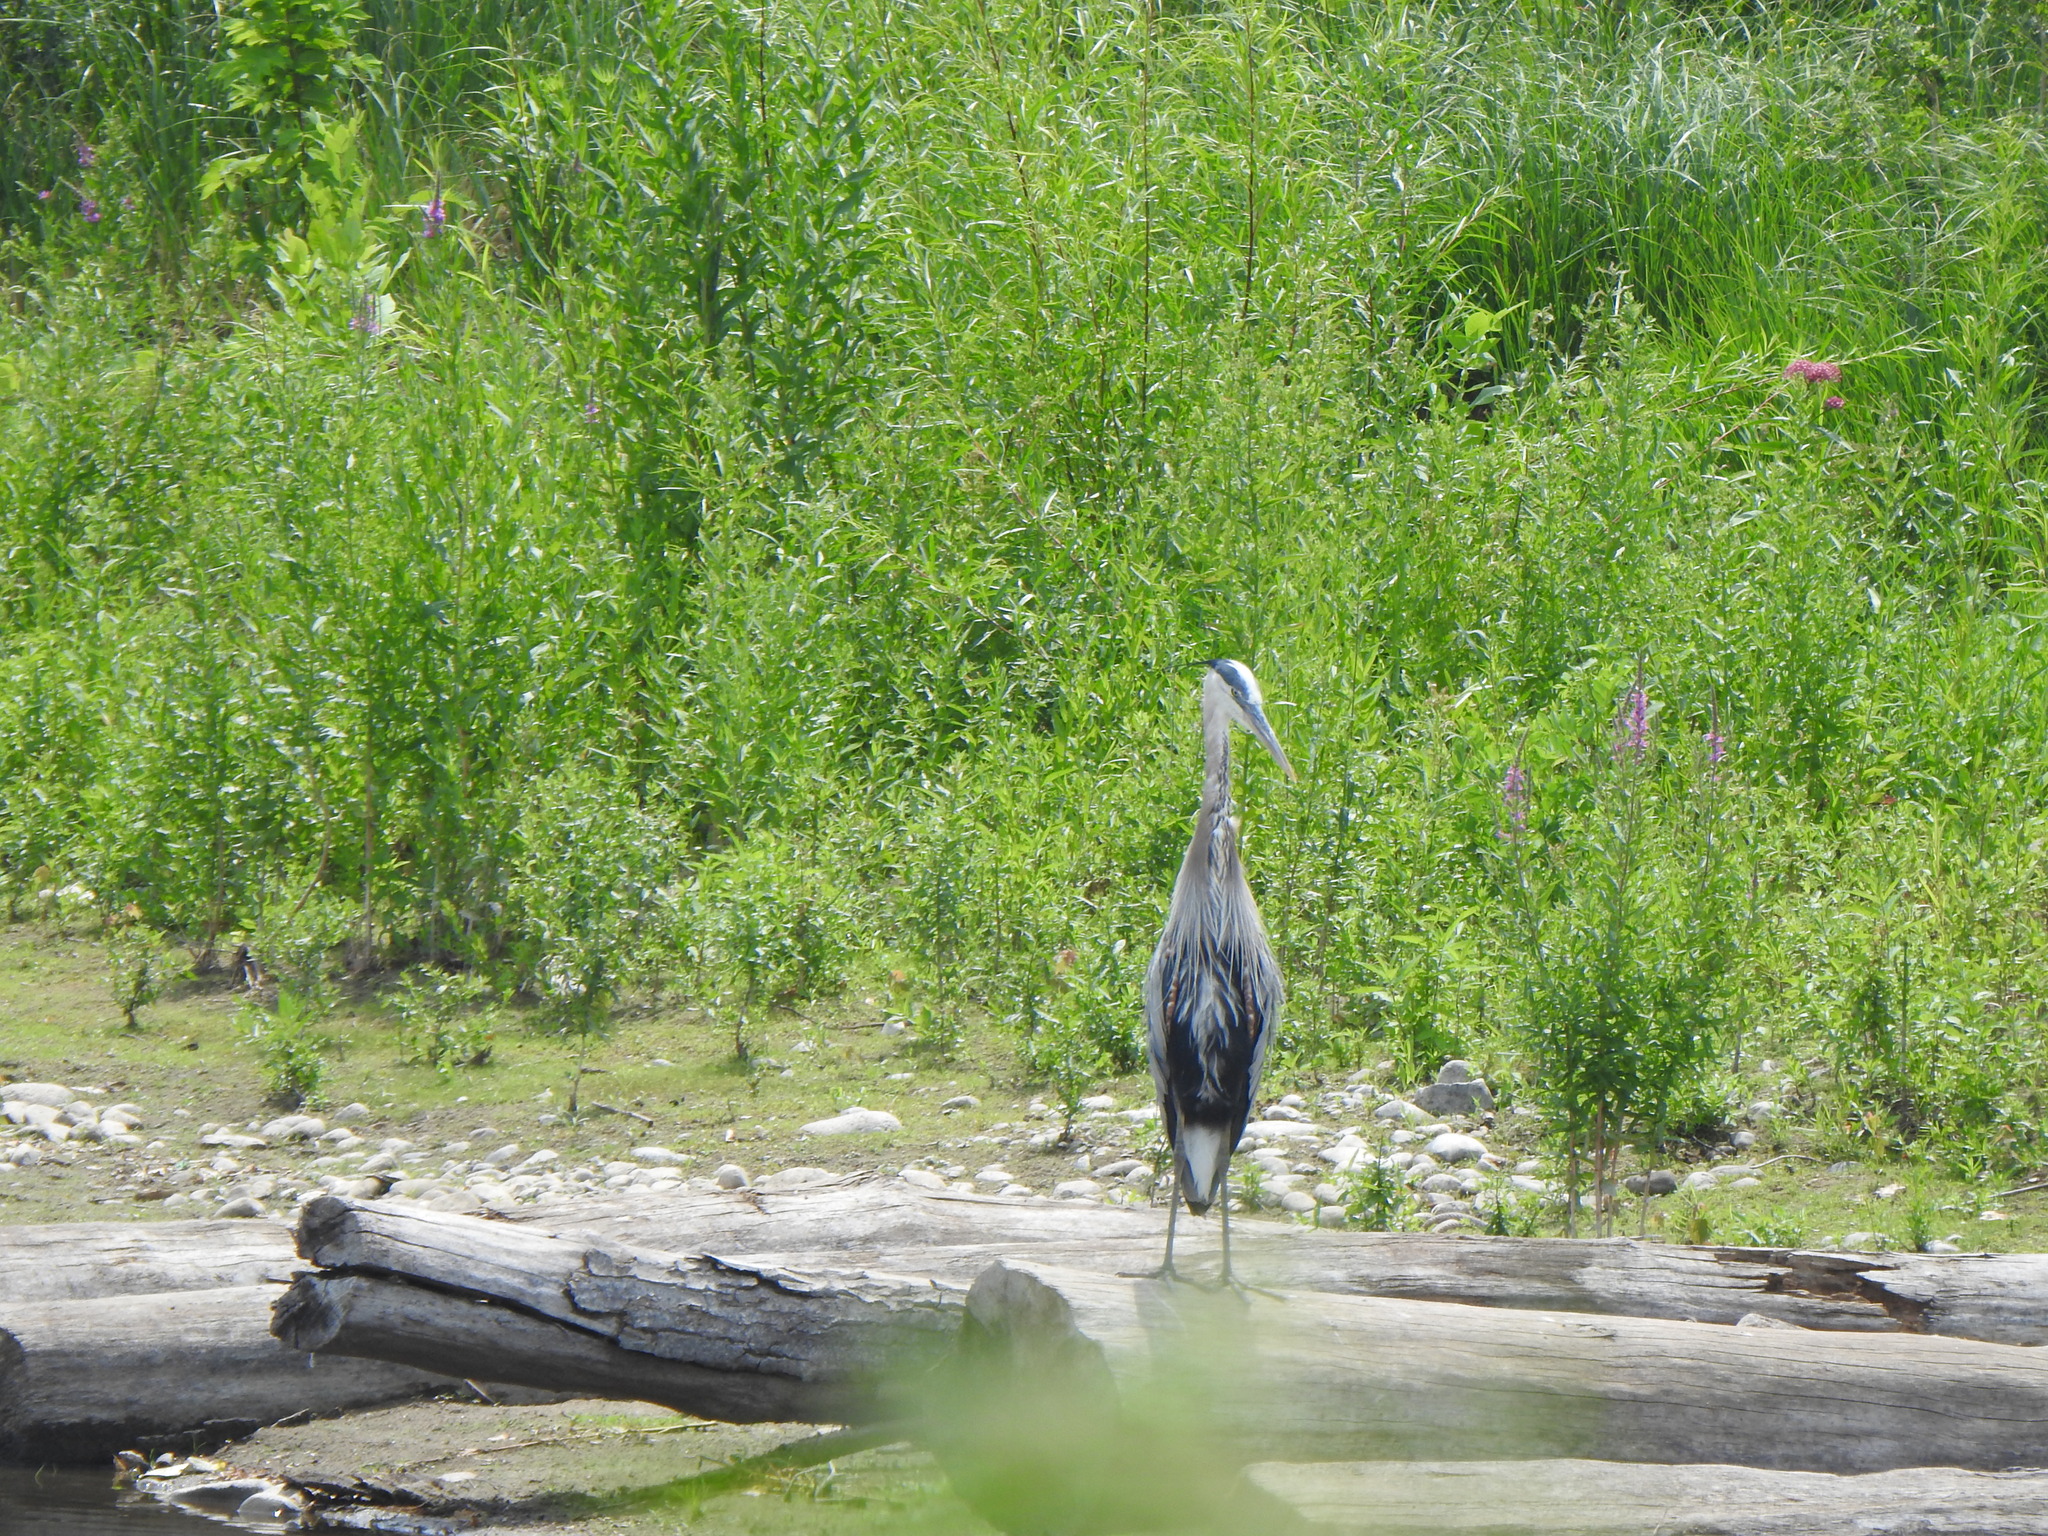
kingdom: Animalia
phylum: Chordata
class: Aves
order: Pelecaniformes
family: Ardeidae
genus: Ardea
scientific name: Ardea herodias
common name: Great blue heron
